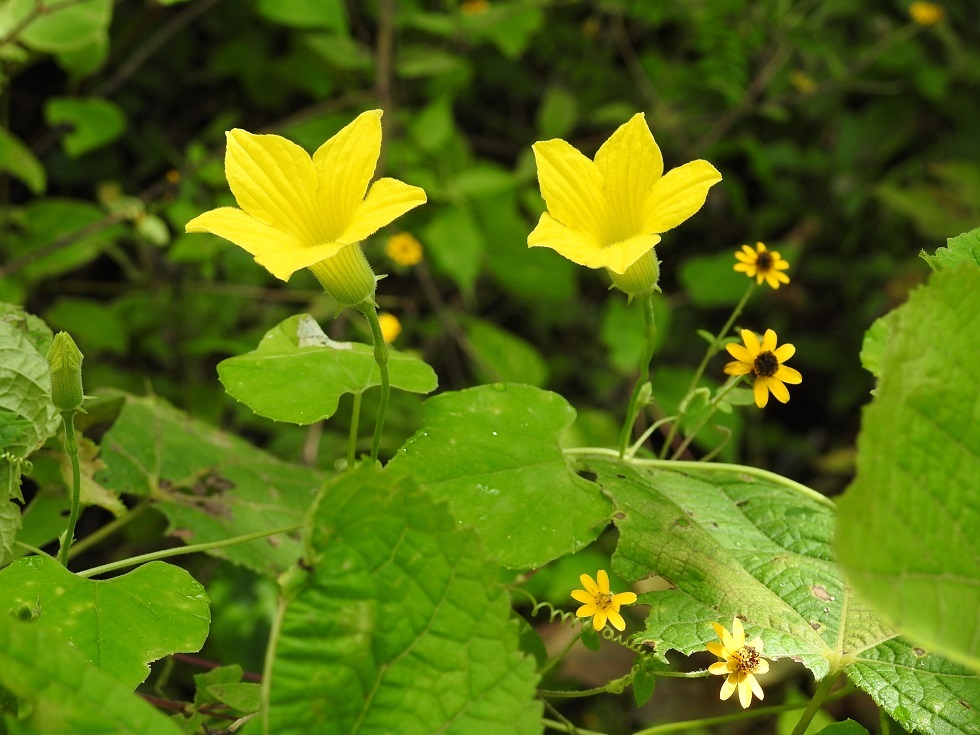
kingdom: Plantae
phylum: Tracheophyta
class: Magnoliopsida
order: Cucurbitales
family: Cucurbitaceae
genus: Schizocarpum
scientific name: Schizocarpum longisepalum
